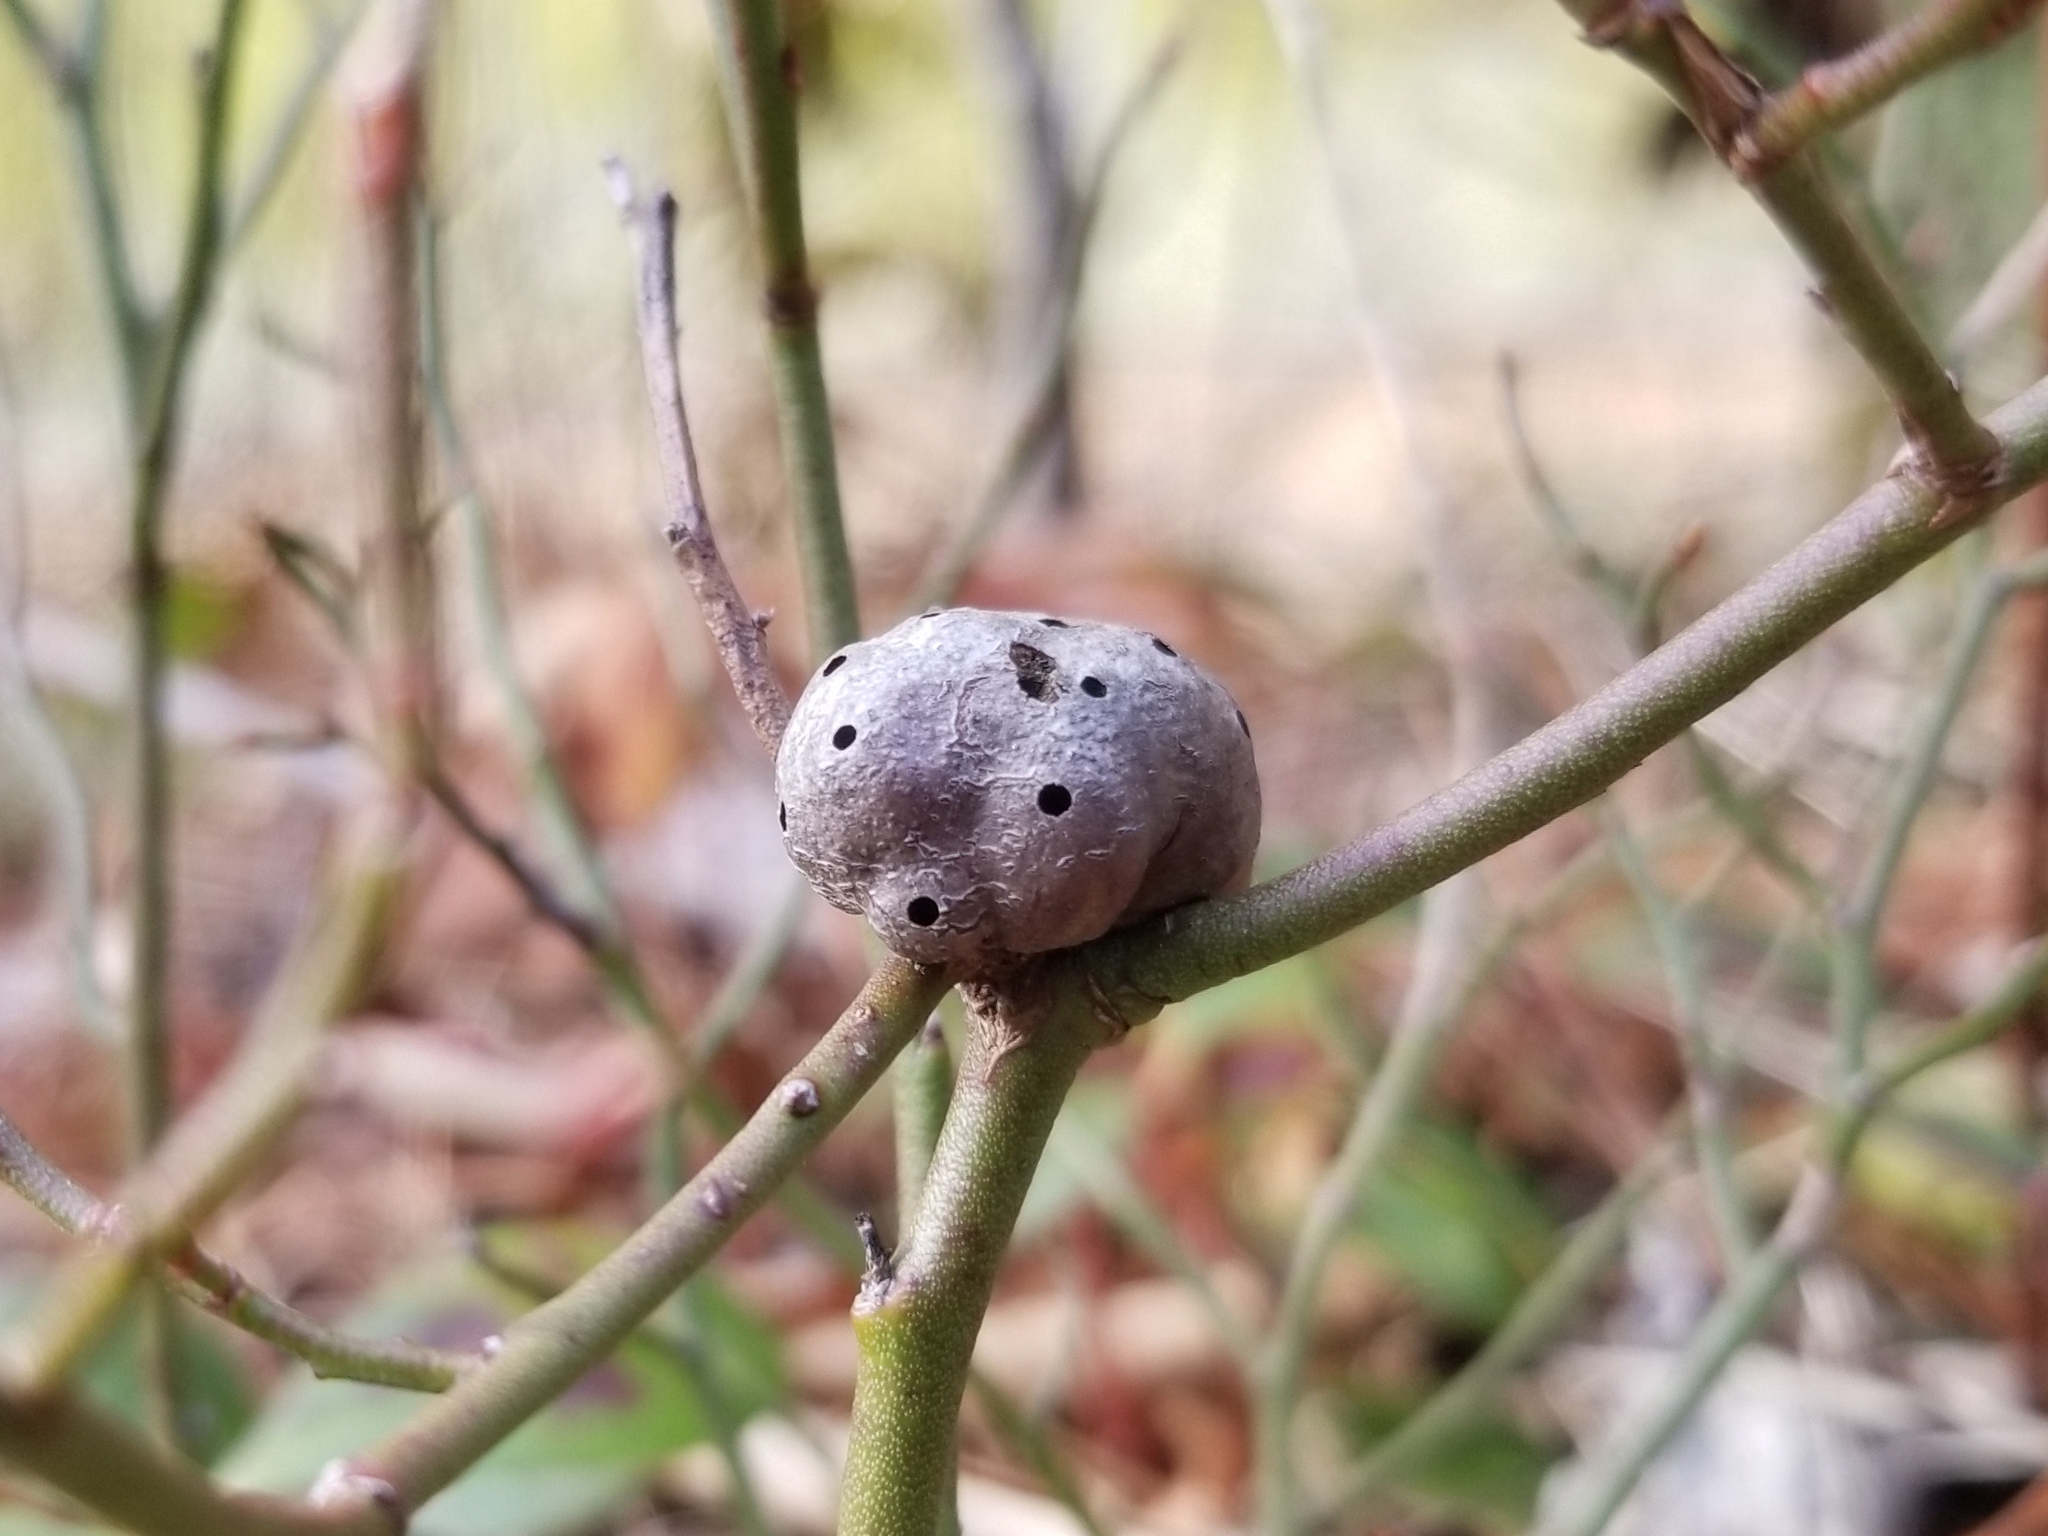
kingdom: Animalia
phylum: Arthropoda
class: Insecta
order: Hymenoptera
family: Pteromalidae
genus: Hemadas
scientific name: Hemadas nubilipennis
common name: Blueberry stem gall wasp
